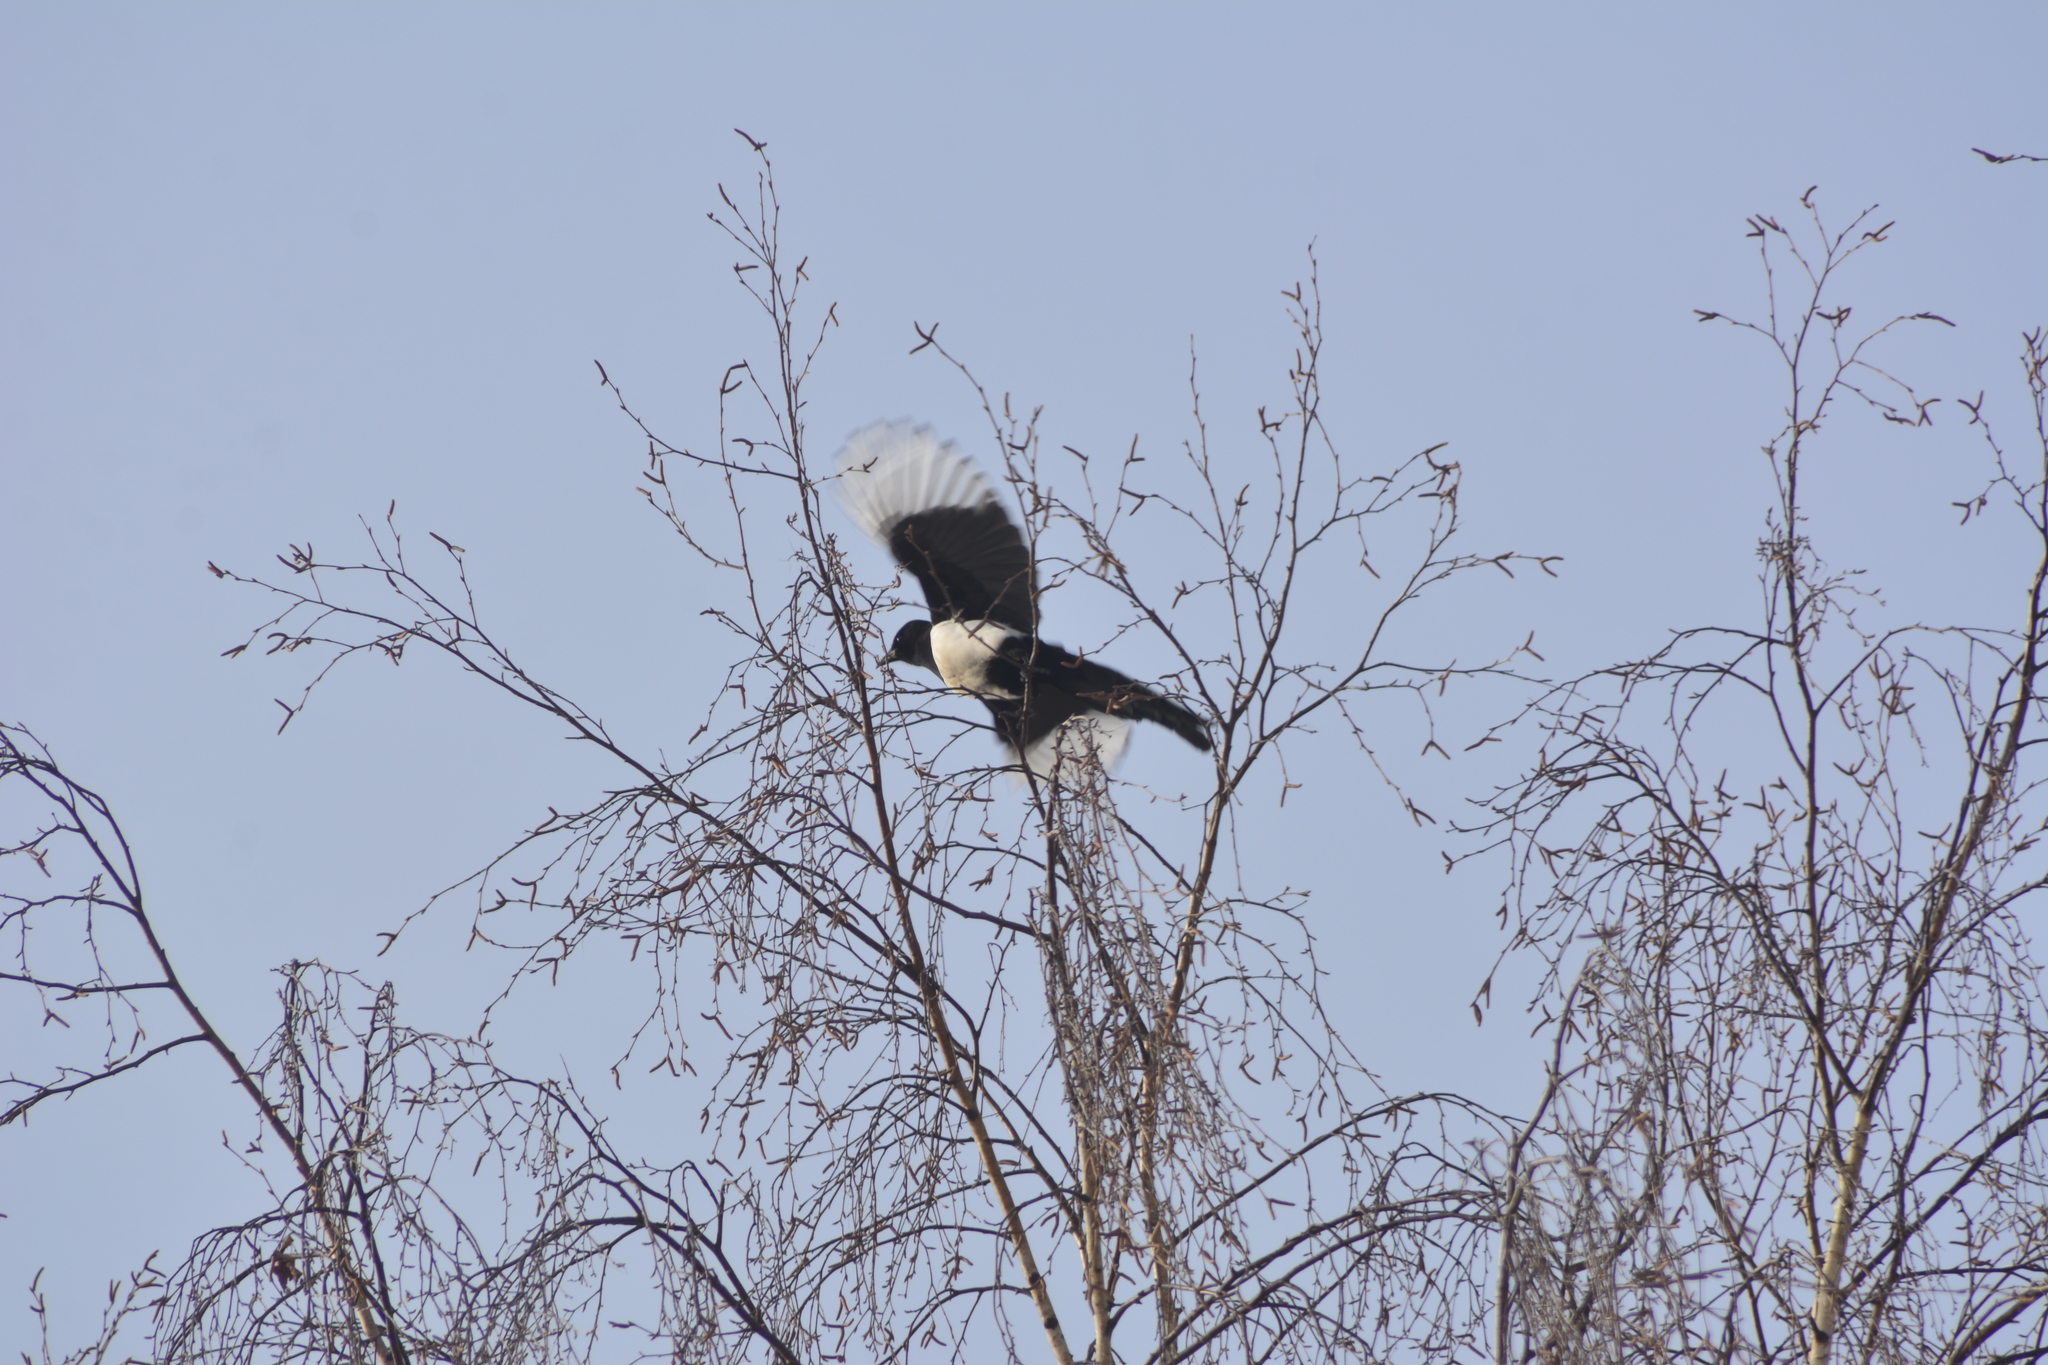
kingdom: Animalia
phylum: Chordata
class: Aves
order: Passeriformes
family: Corvidae
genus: Pica
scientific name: Pica pica
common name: Eurasian magpie
